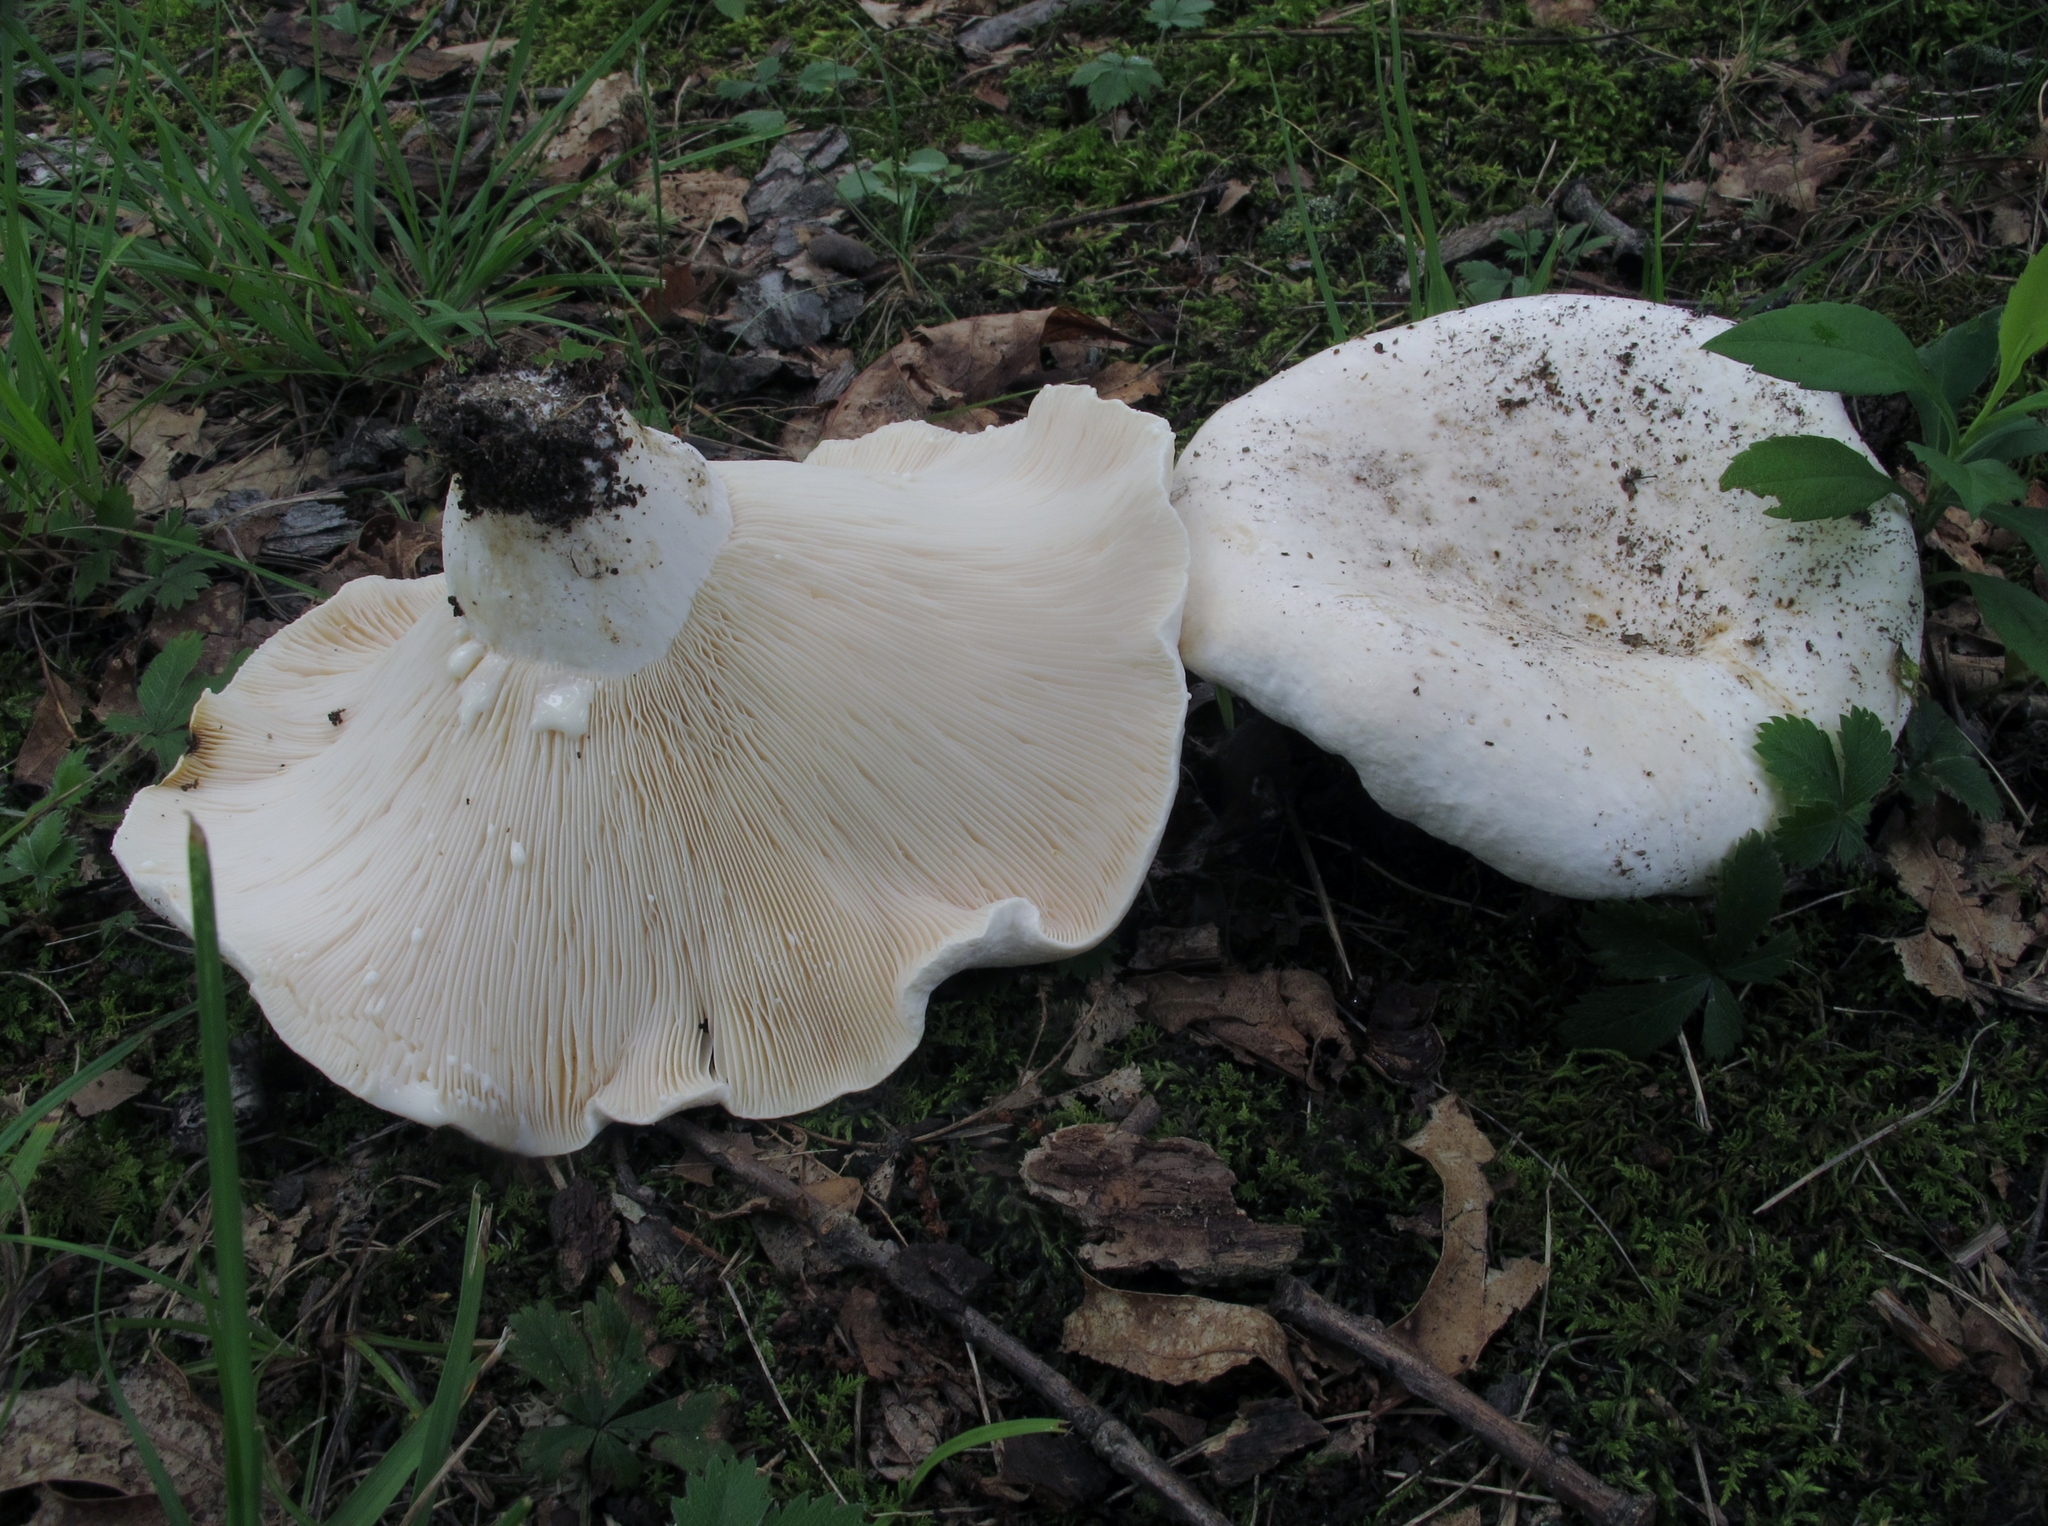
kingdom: Fungi
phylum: Basidiomycota
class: Agaricomycetes
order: Russulales
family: Russulaceae
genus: Lactifluus
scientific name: Lactifluus piperatus
